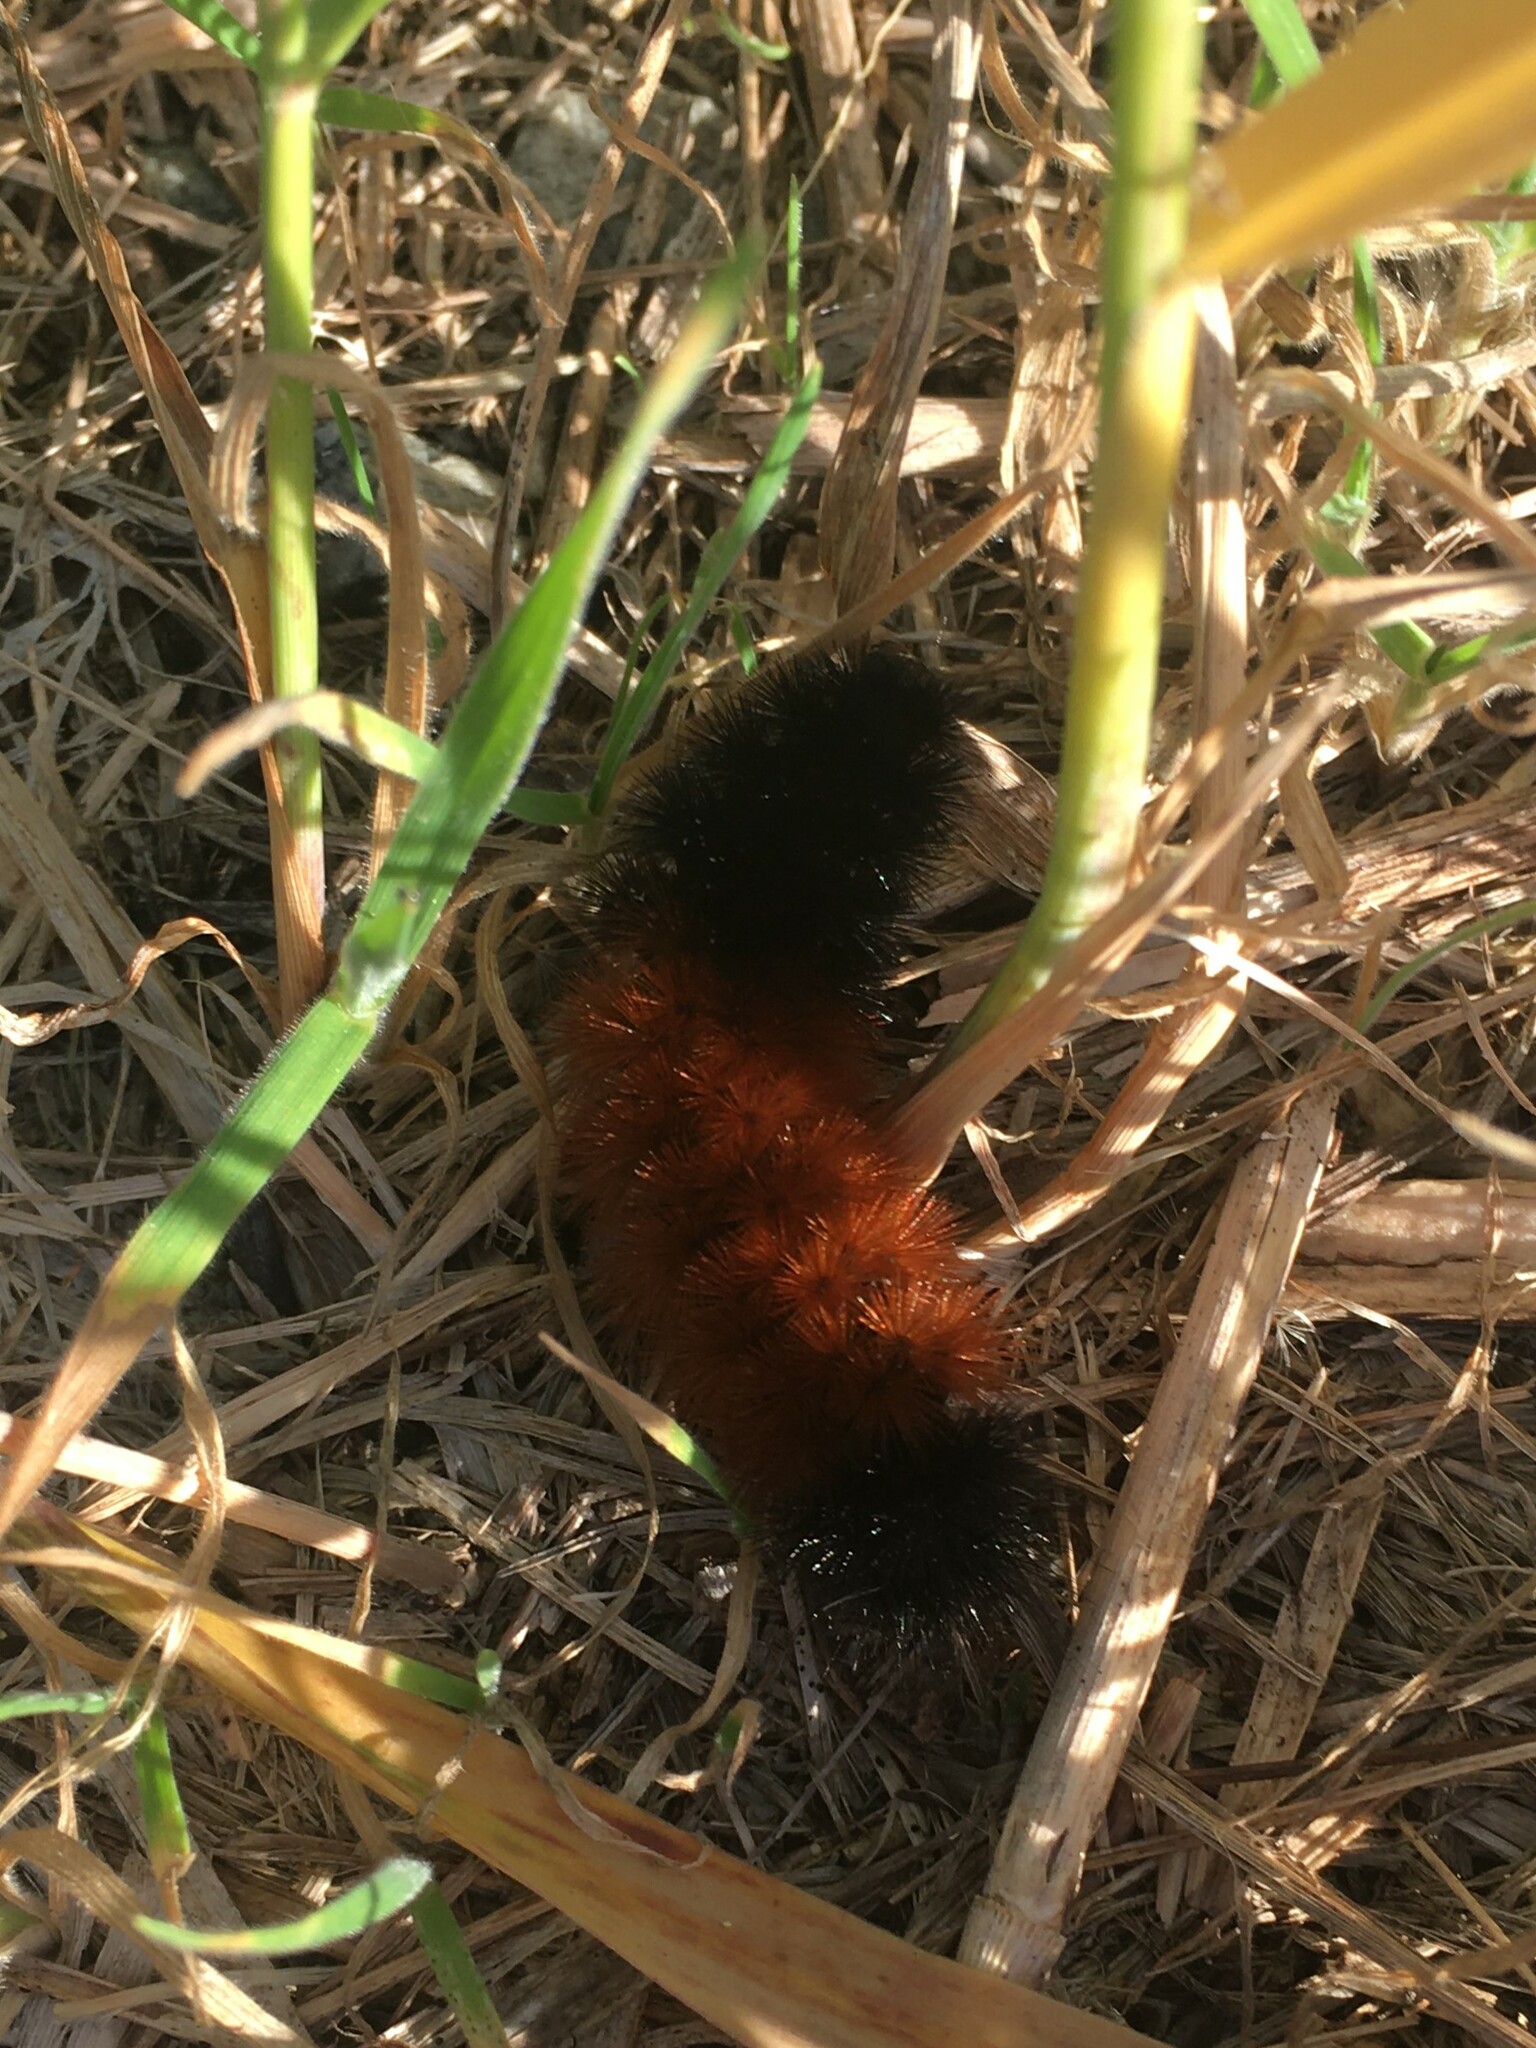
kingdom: Animalia
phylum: Arthropoda
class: Insecta
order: Lepidoptera
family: Erebidae
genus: Pyrrharctia
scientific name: Pyrrharctia isabella
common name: Isabella tiger moth
